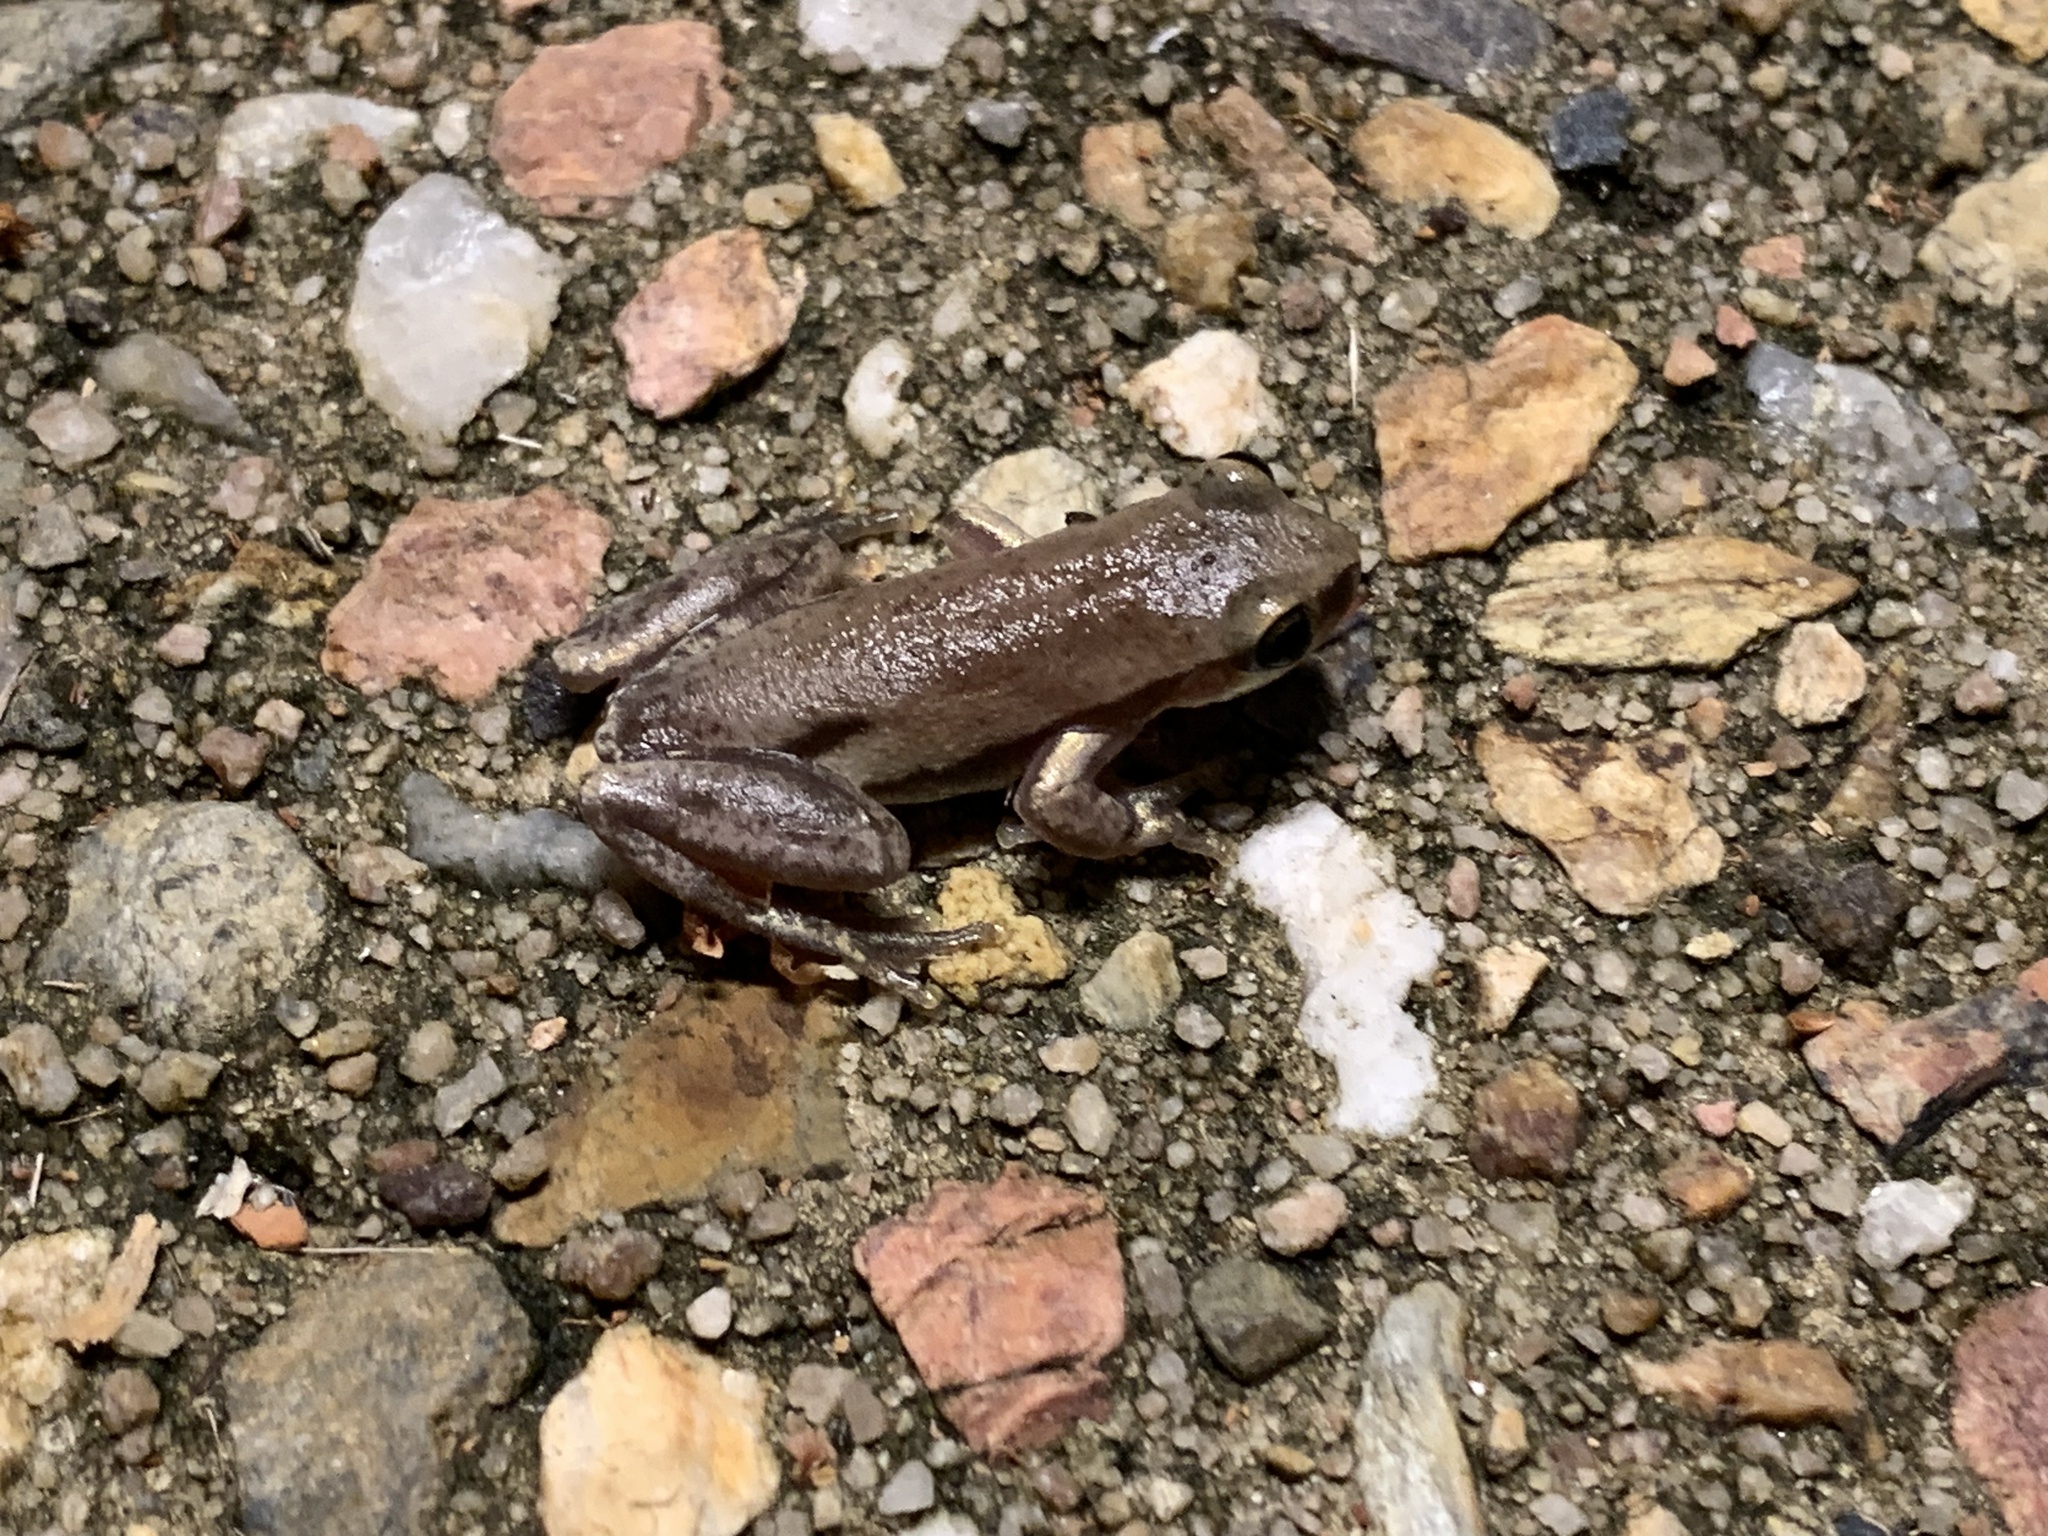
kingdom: Animalia
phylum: Chordata
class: Amphibia
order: Anura
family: Pelodryadidae
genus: Litoria
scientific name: Litoria rubella
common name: Desert tree frog
